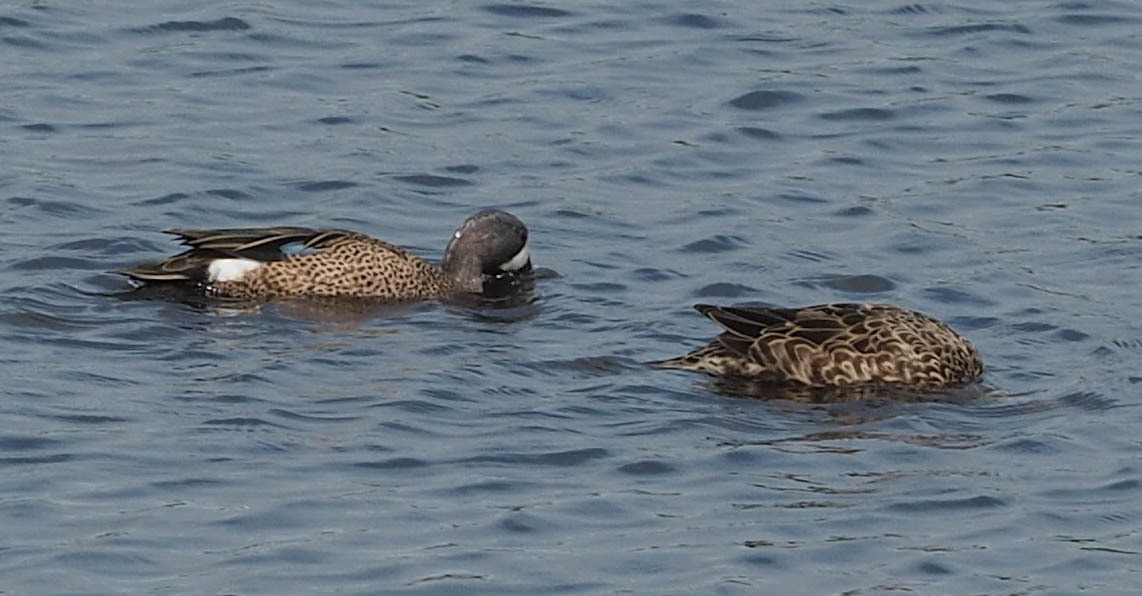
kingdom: Animalia
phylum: Chordata
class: Aves
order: Anseriformes
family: Anatidae
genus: Spatula
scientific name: Spatula discors
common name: Blue-winged teal
